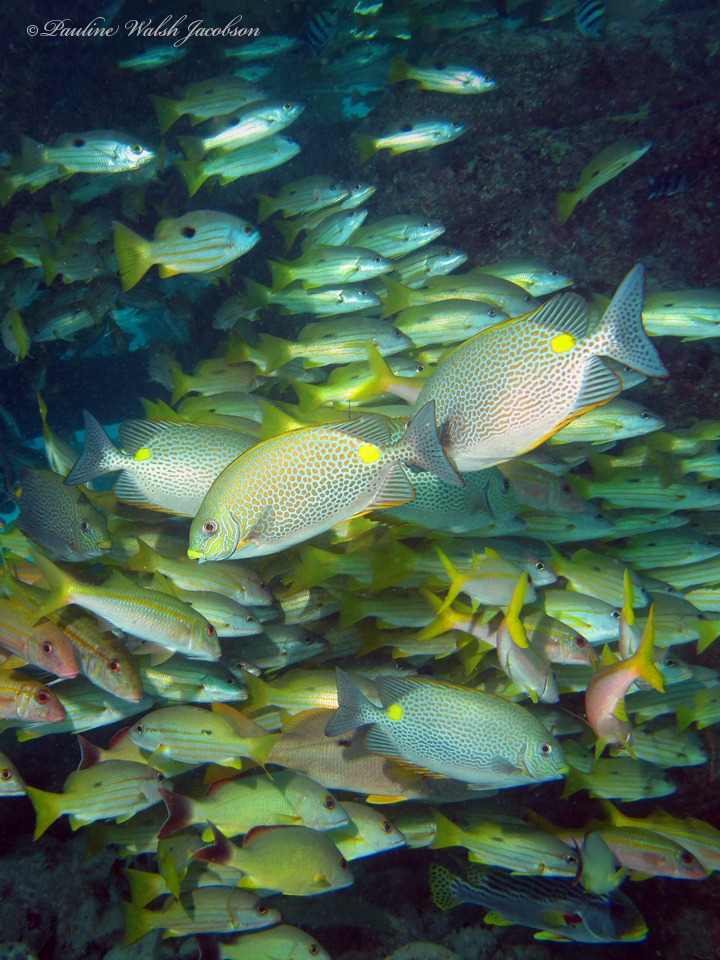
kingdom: Animalia
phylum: Chordata
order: Perciformes
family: Siganidae
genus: Siganus
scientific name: Siganus guttatus
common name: Golden rabbitfish
